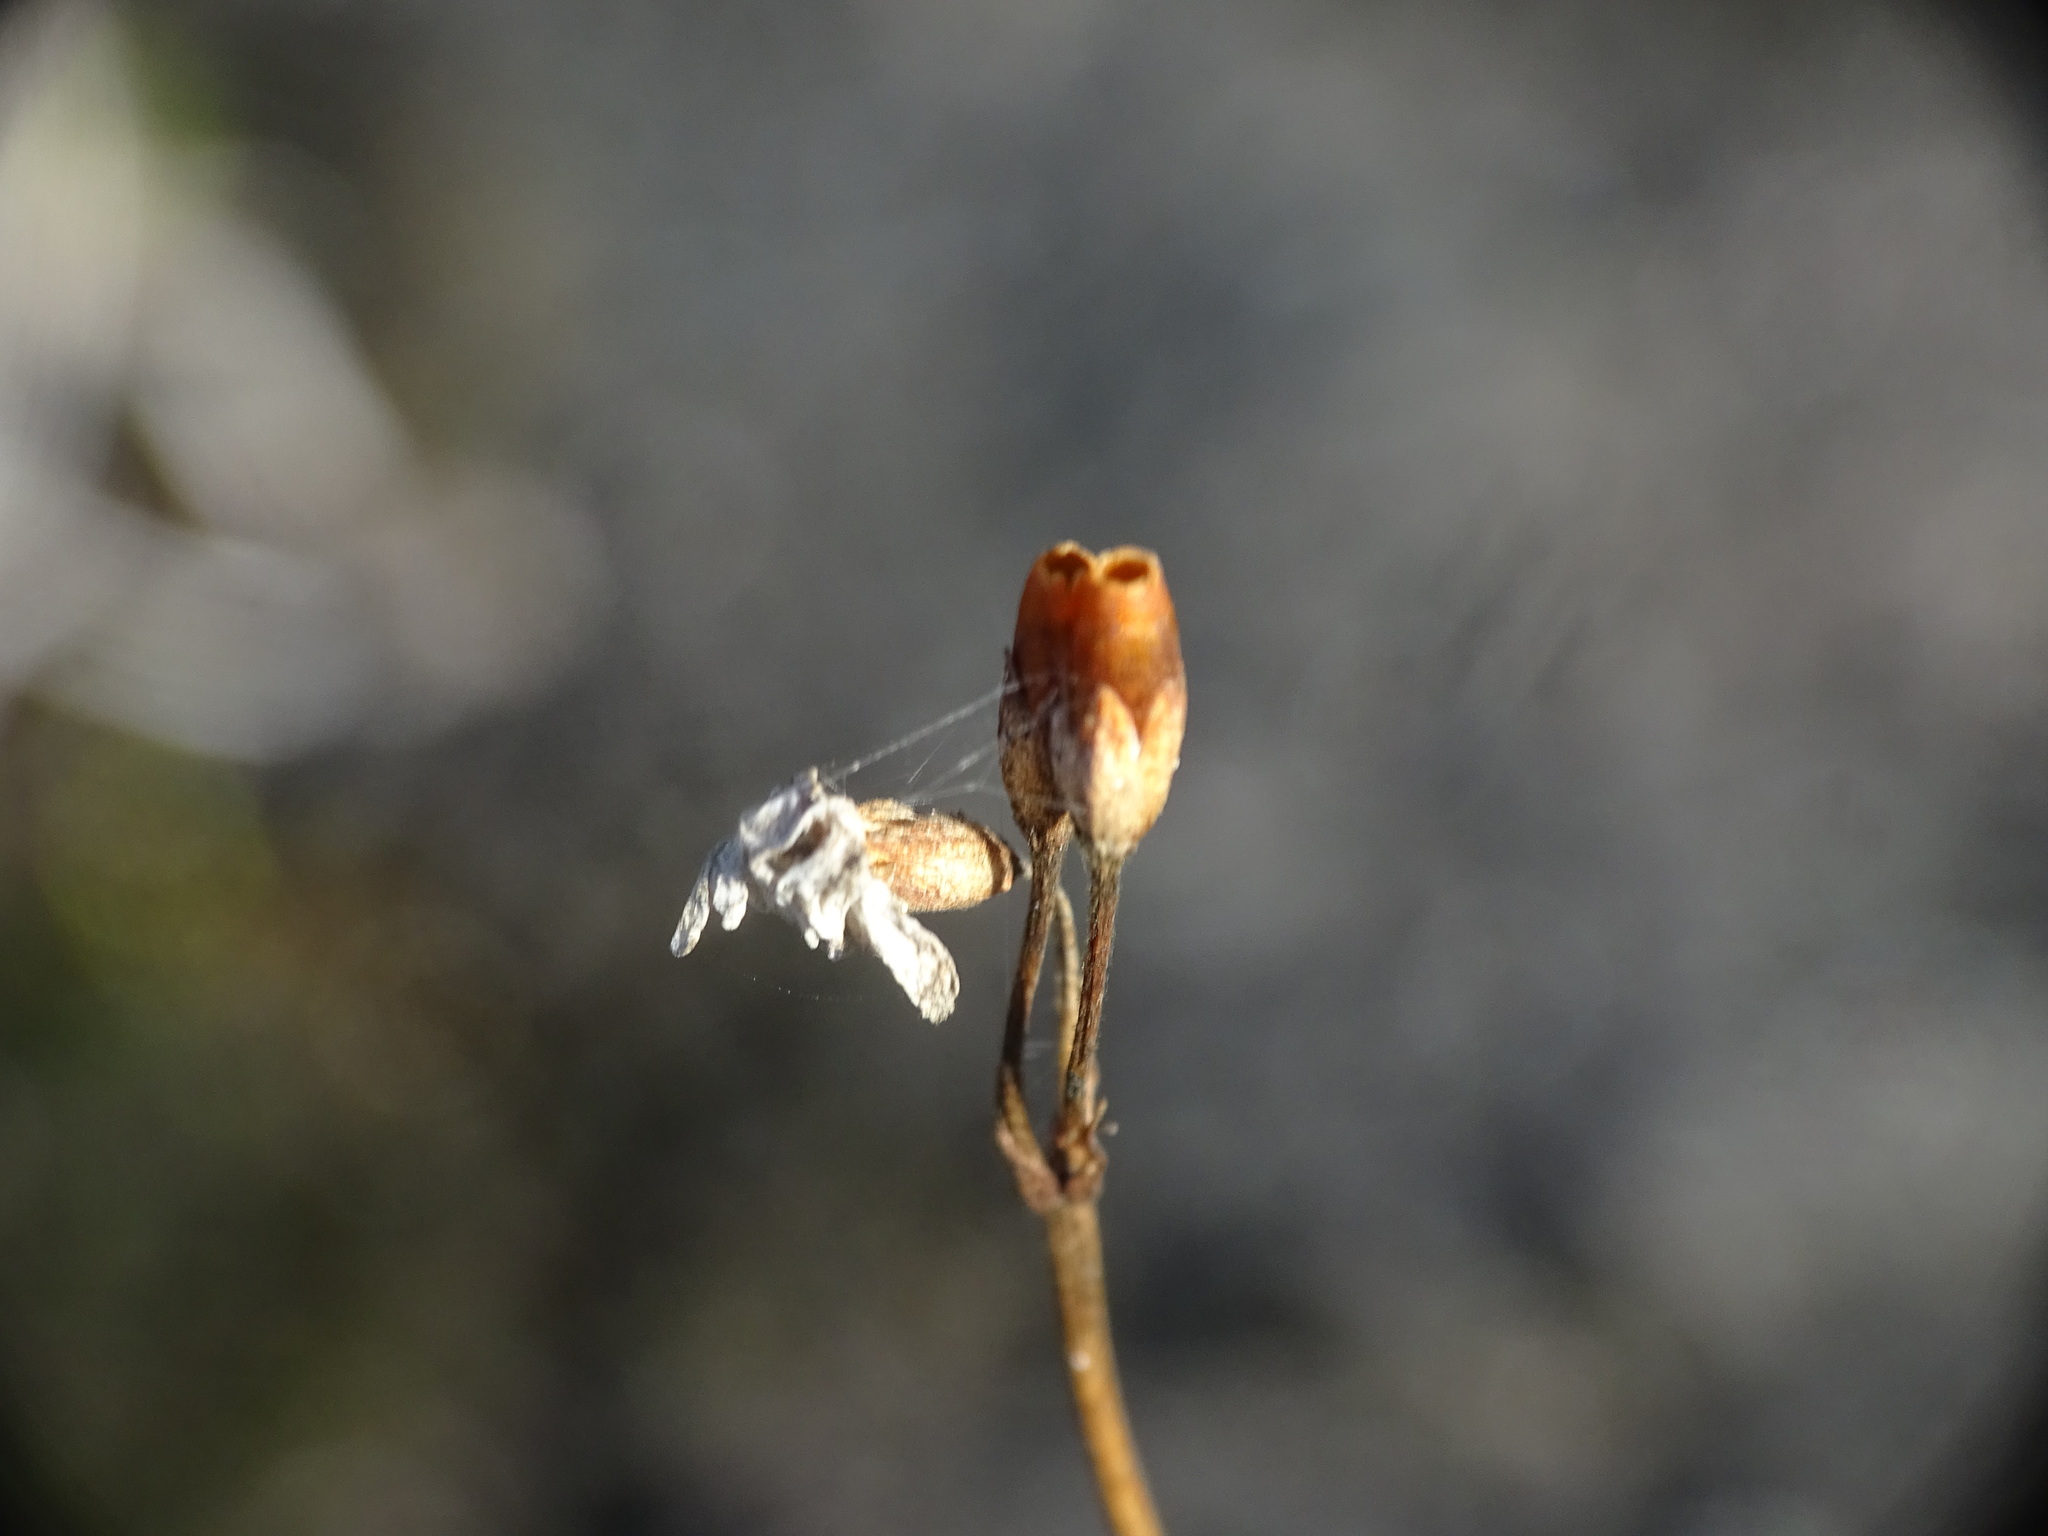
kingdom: Plantae
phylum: Tracheophyta
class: Magnoliopsida
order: Ericales
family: Primulaceae
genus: Primula
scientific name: Primula mistassinica
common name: Bird's-eye primrose
